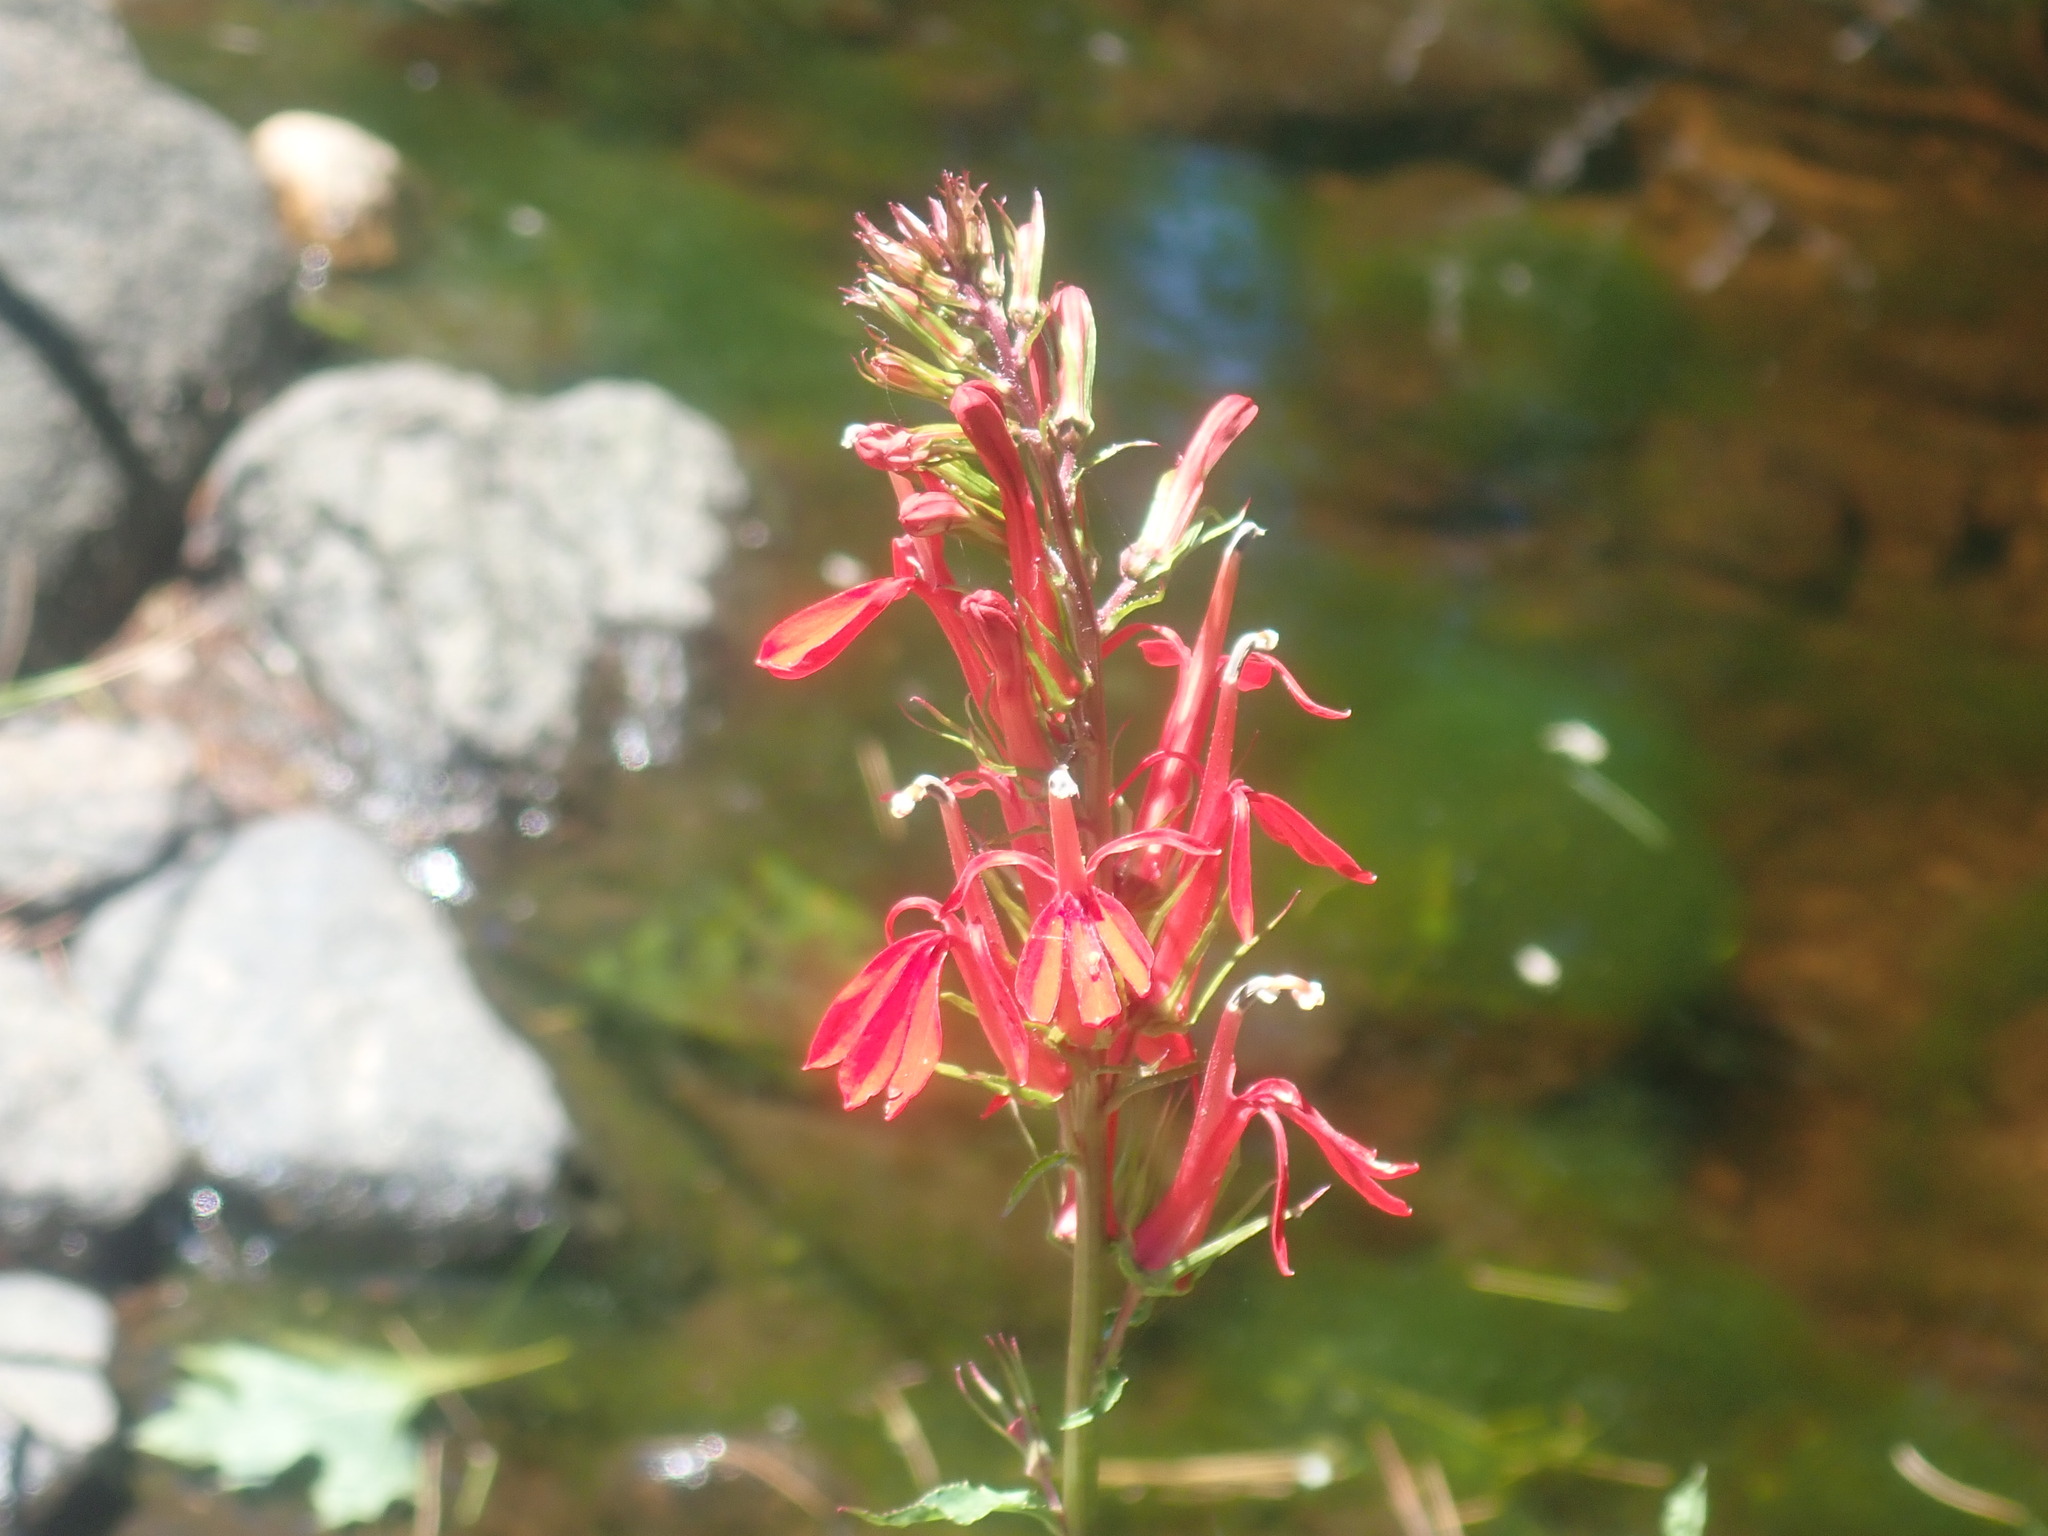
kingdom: Plantae
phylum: Tracheophyta
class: Magnoliopsida
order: Asterales
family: Campanulaceae
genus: Lobelia
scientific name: Lobelia cardinalis
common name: Cardinal flower
